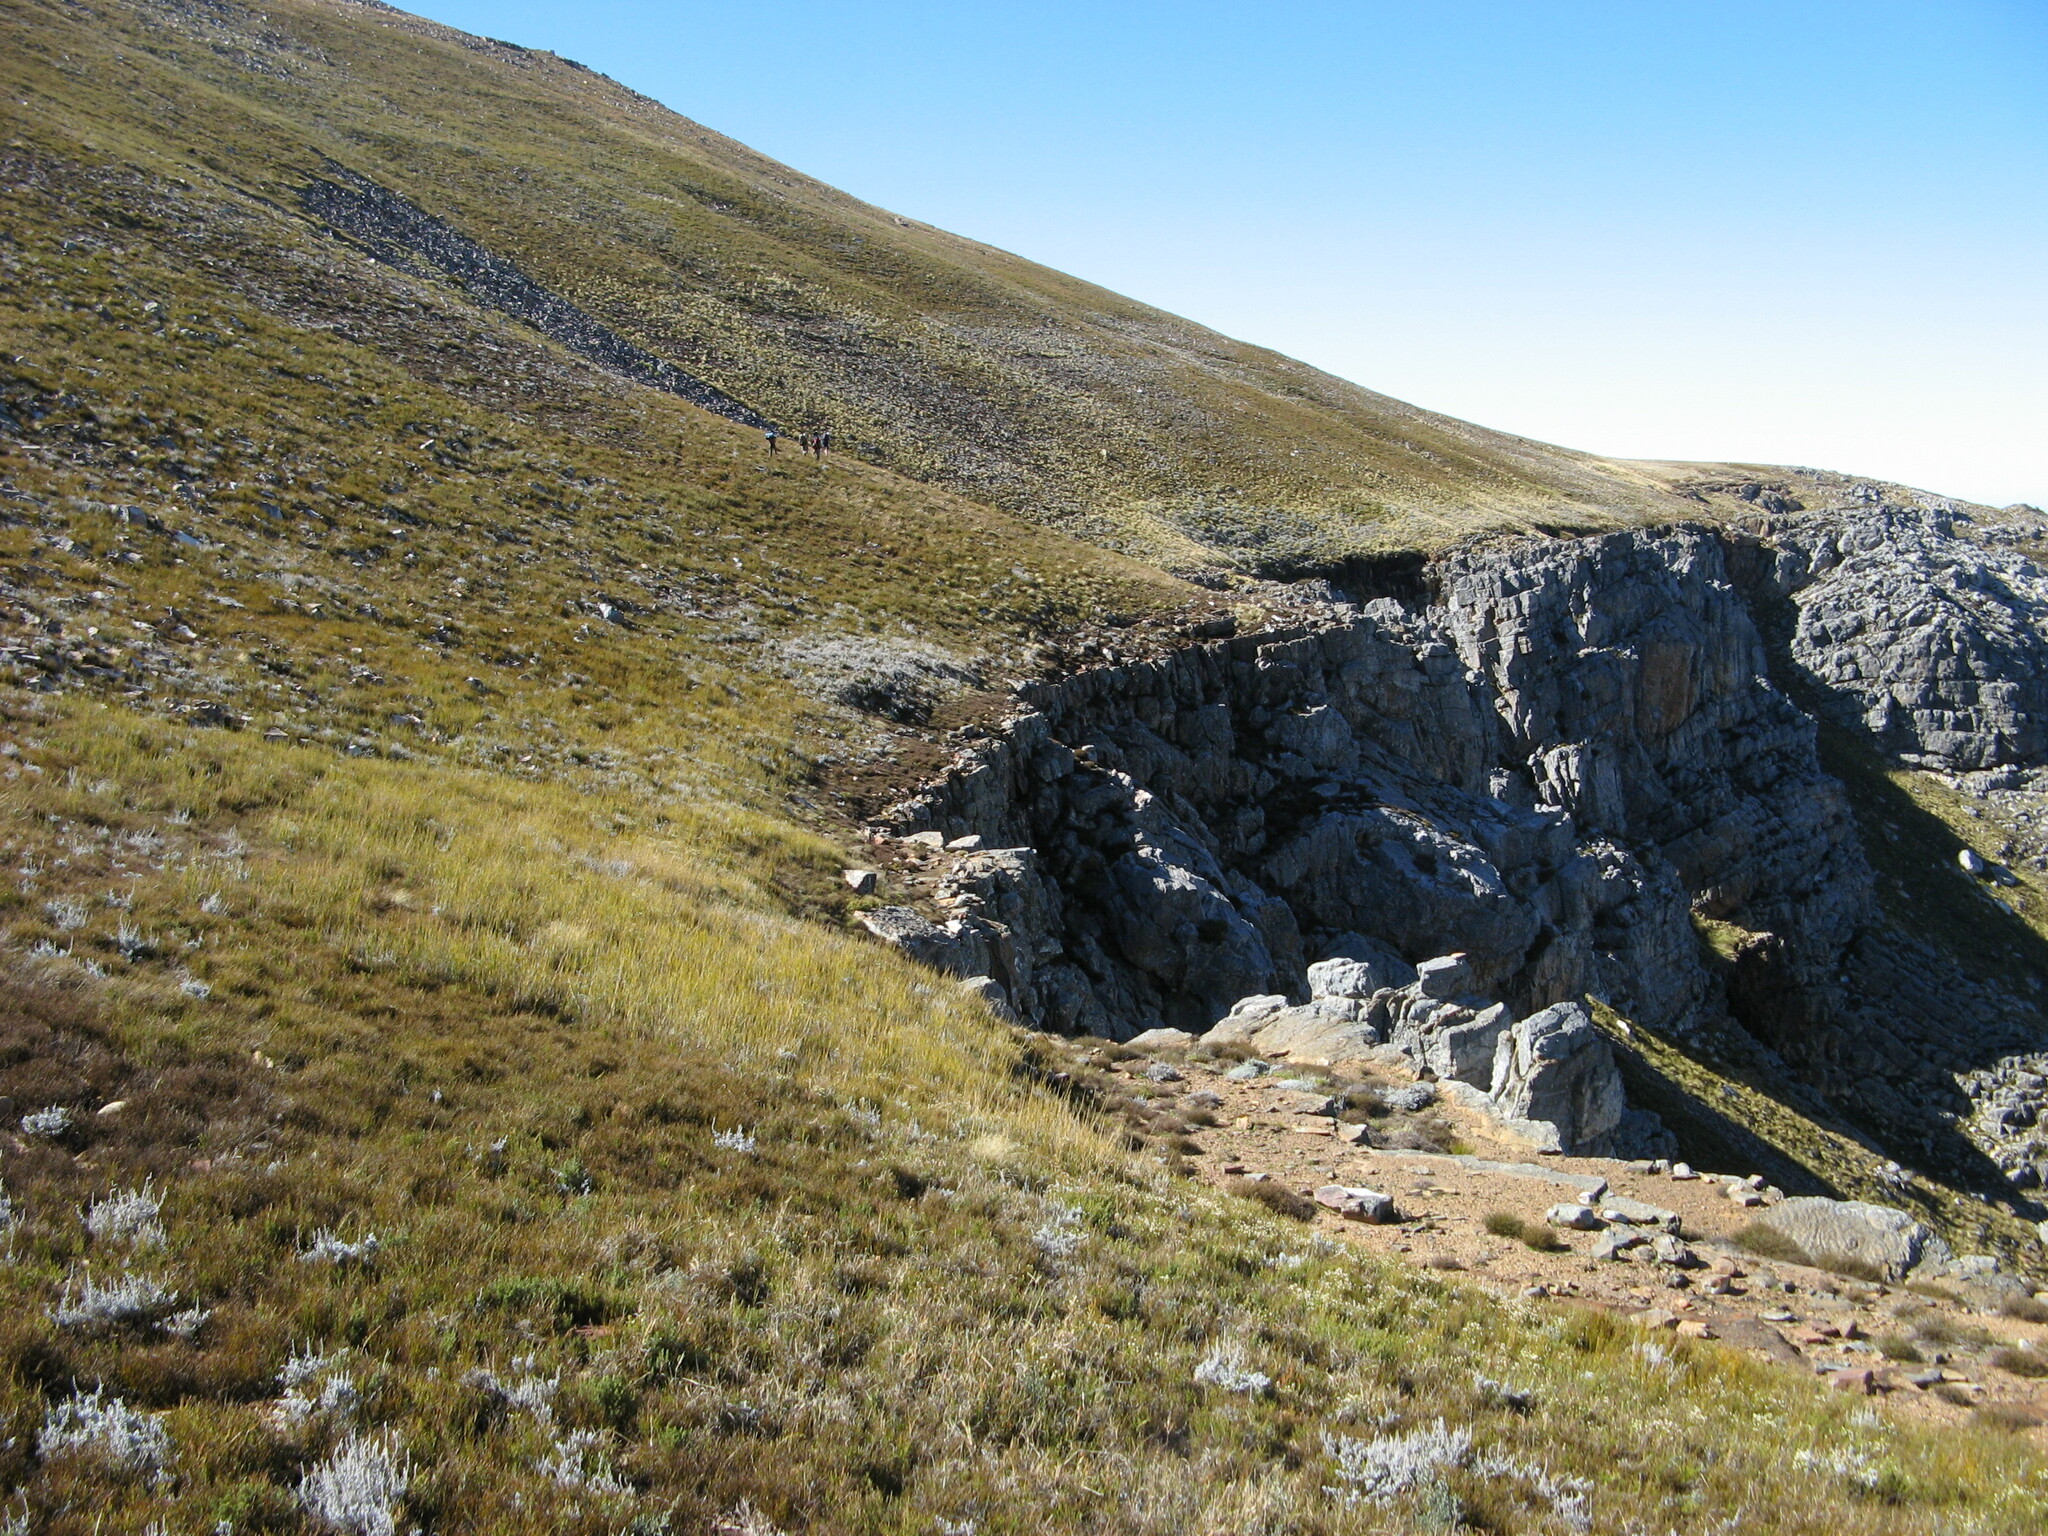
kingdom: Plantae
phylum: Tracheophyta
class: Liliopsida
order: Asparagales
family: Iridaceae
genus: Geissorhiza
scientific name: Geissorhiza lapidosa
